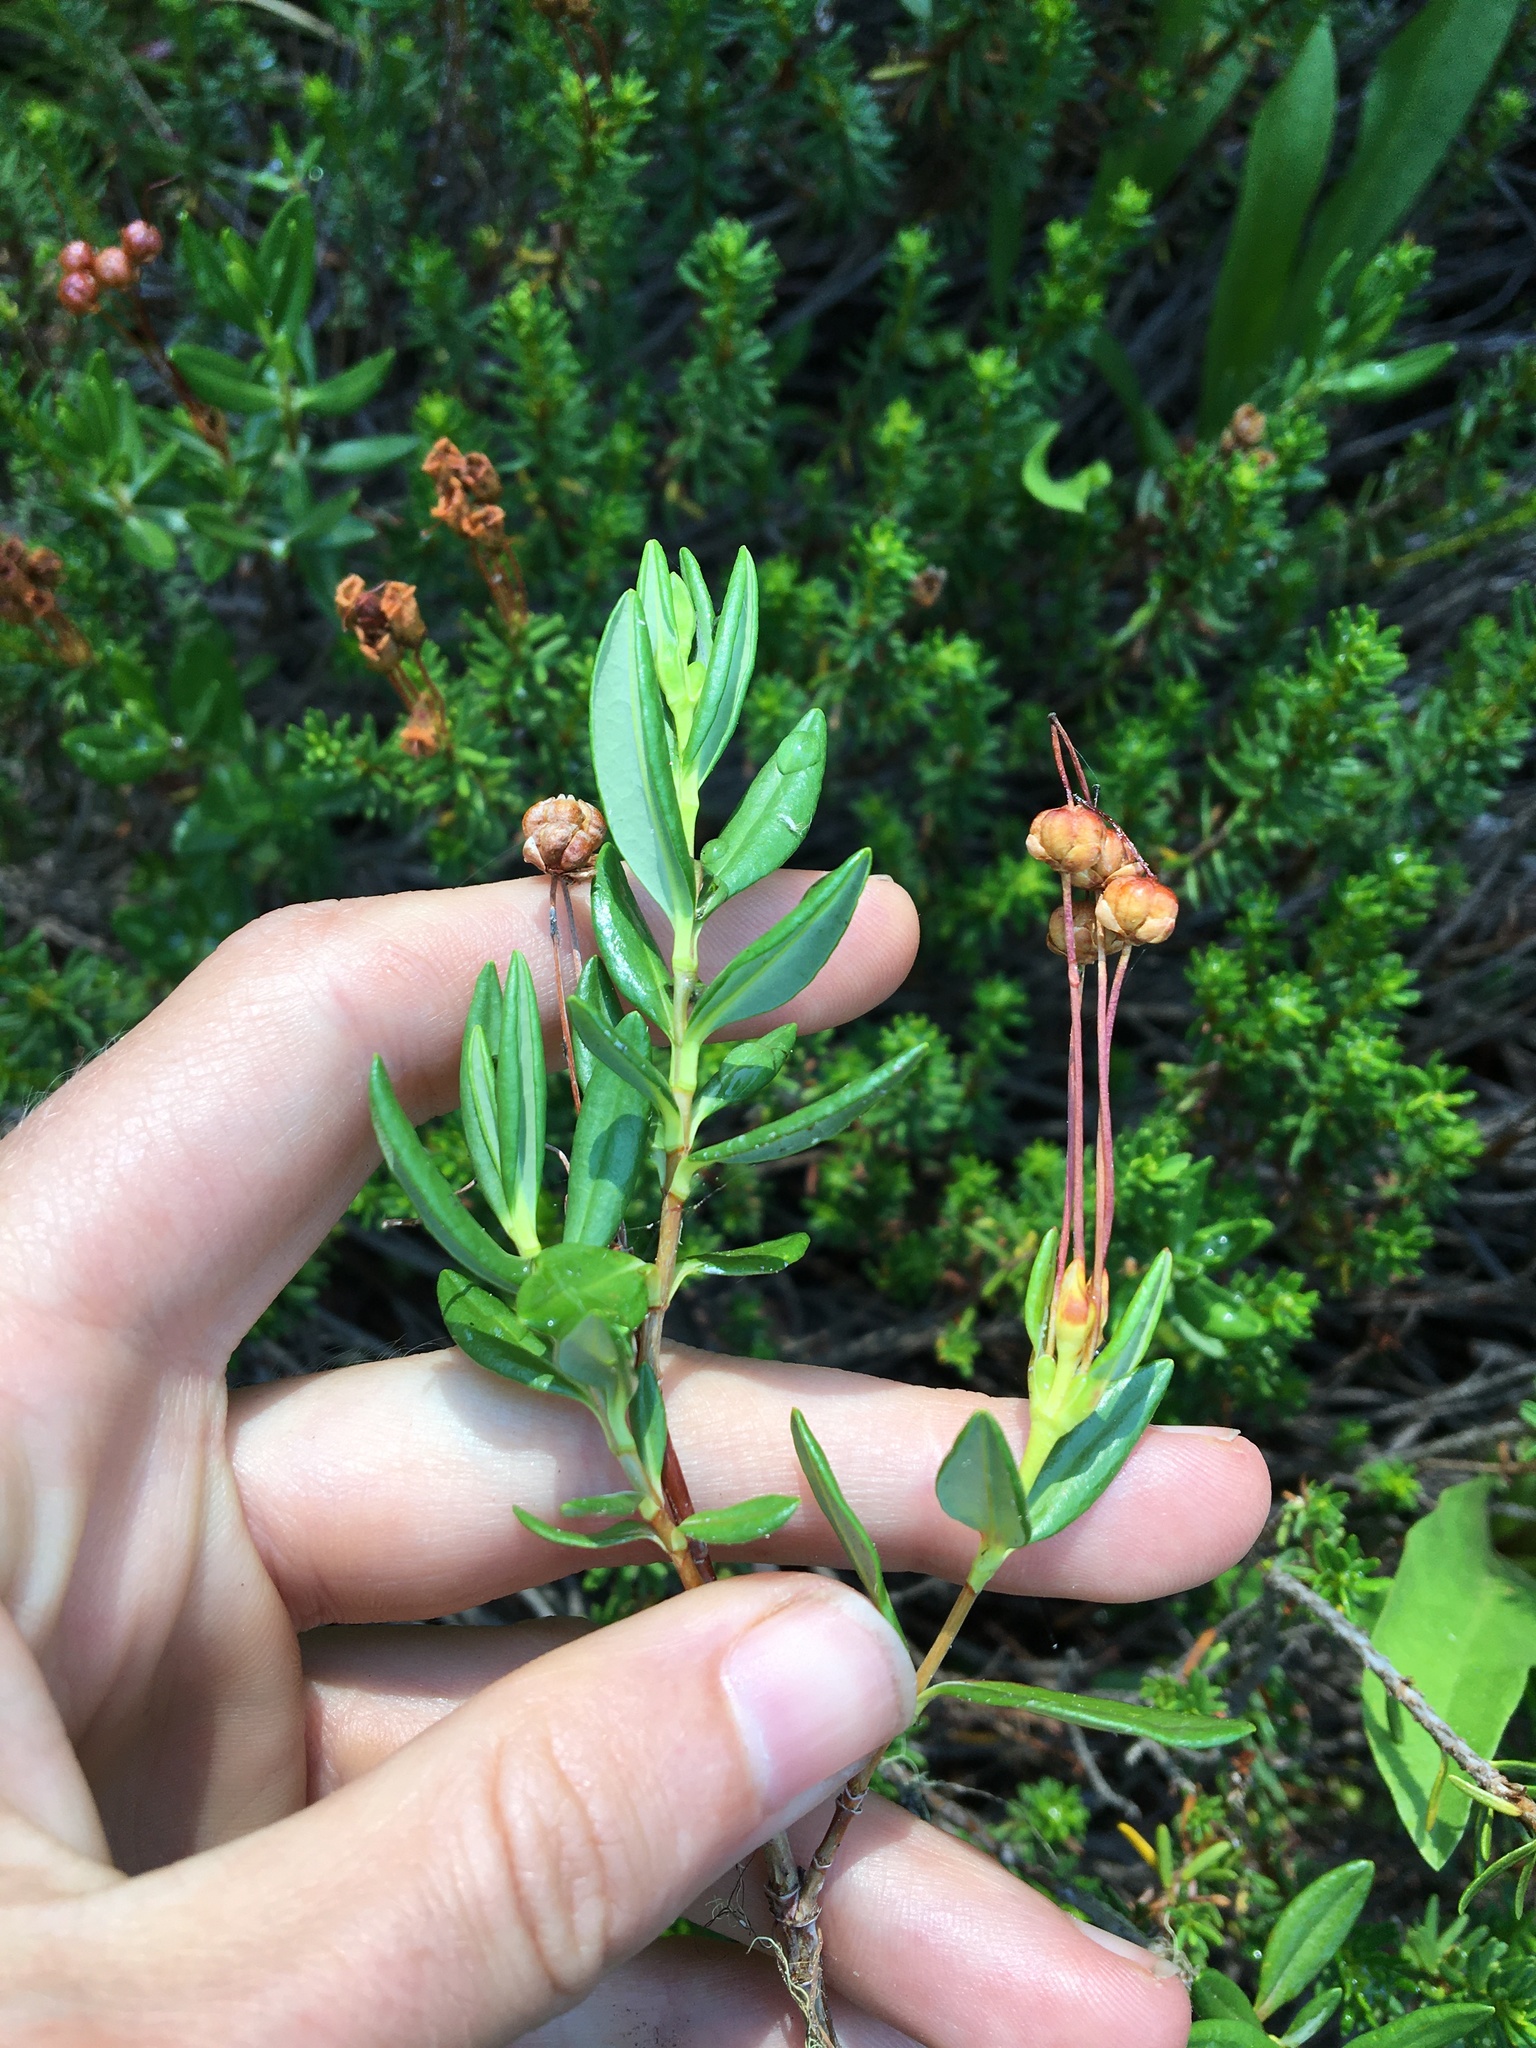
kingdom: Plantae
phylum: Tracheophyta
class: Magnoliopsida
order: Ericales
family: Ericaceae
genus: Kalmia
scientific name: Kalmia microphylla
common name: Alpine bog laurel
